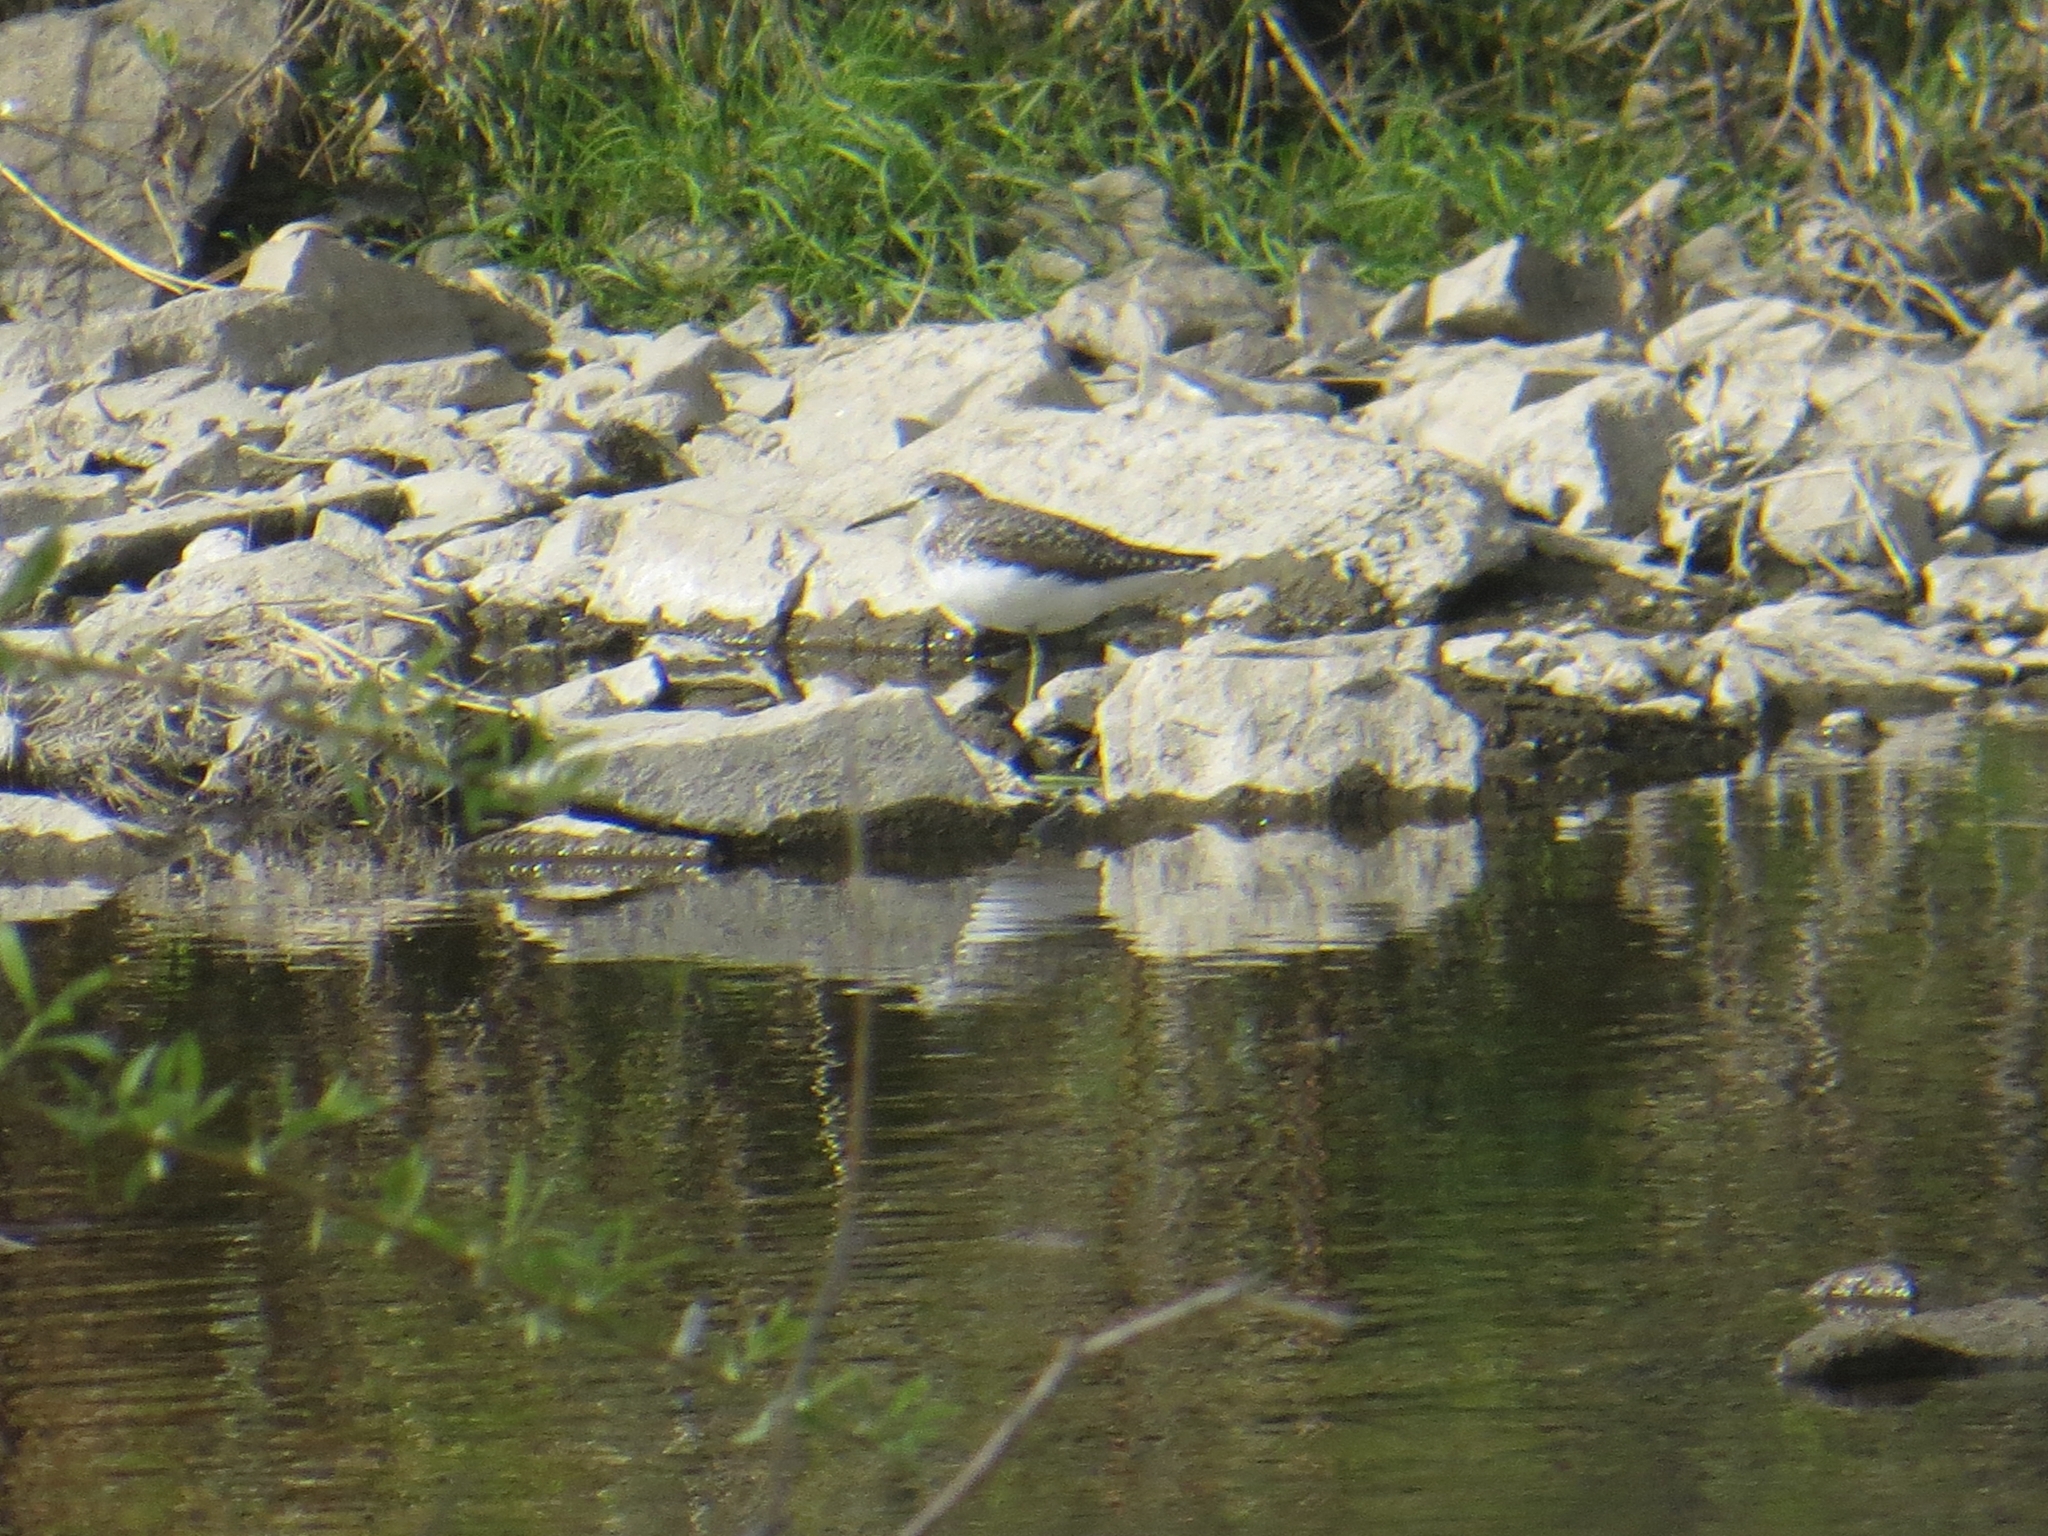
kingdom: Animalia
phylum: Chordata
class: Aves
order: Charadriiformes
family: Scolopacidae
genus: Tringa
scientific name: Tringa ochropus
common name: Green sandpiper
